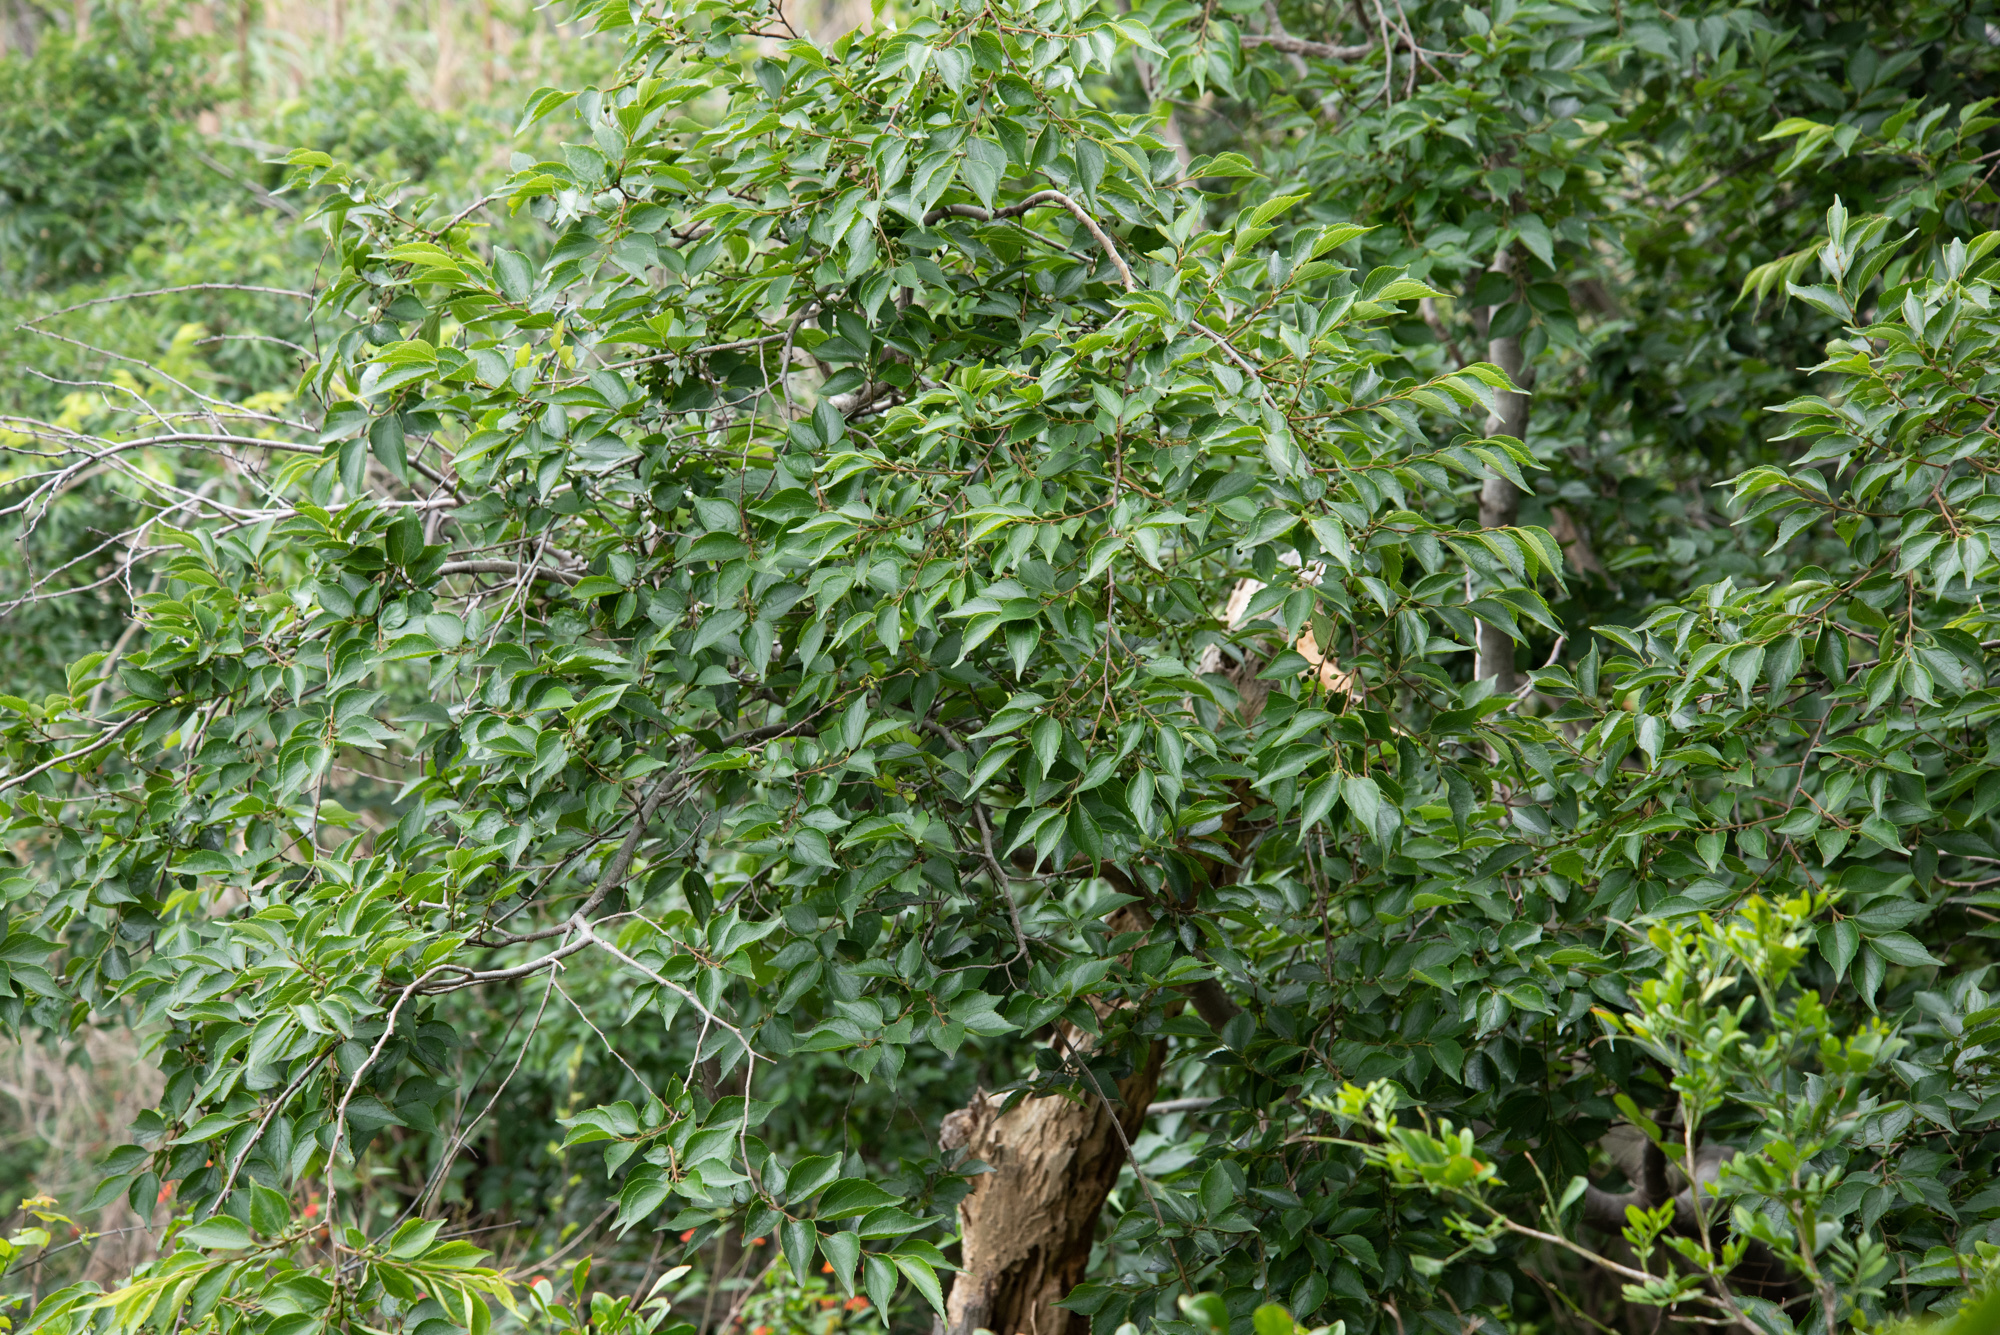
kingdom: Plantae
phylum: Tracheophyta
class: Magnoliopsida
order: Rosales
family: Cannabaceae
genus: Celtis
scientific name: Celtis sinensis
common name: Chinese hackberry
